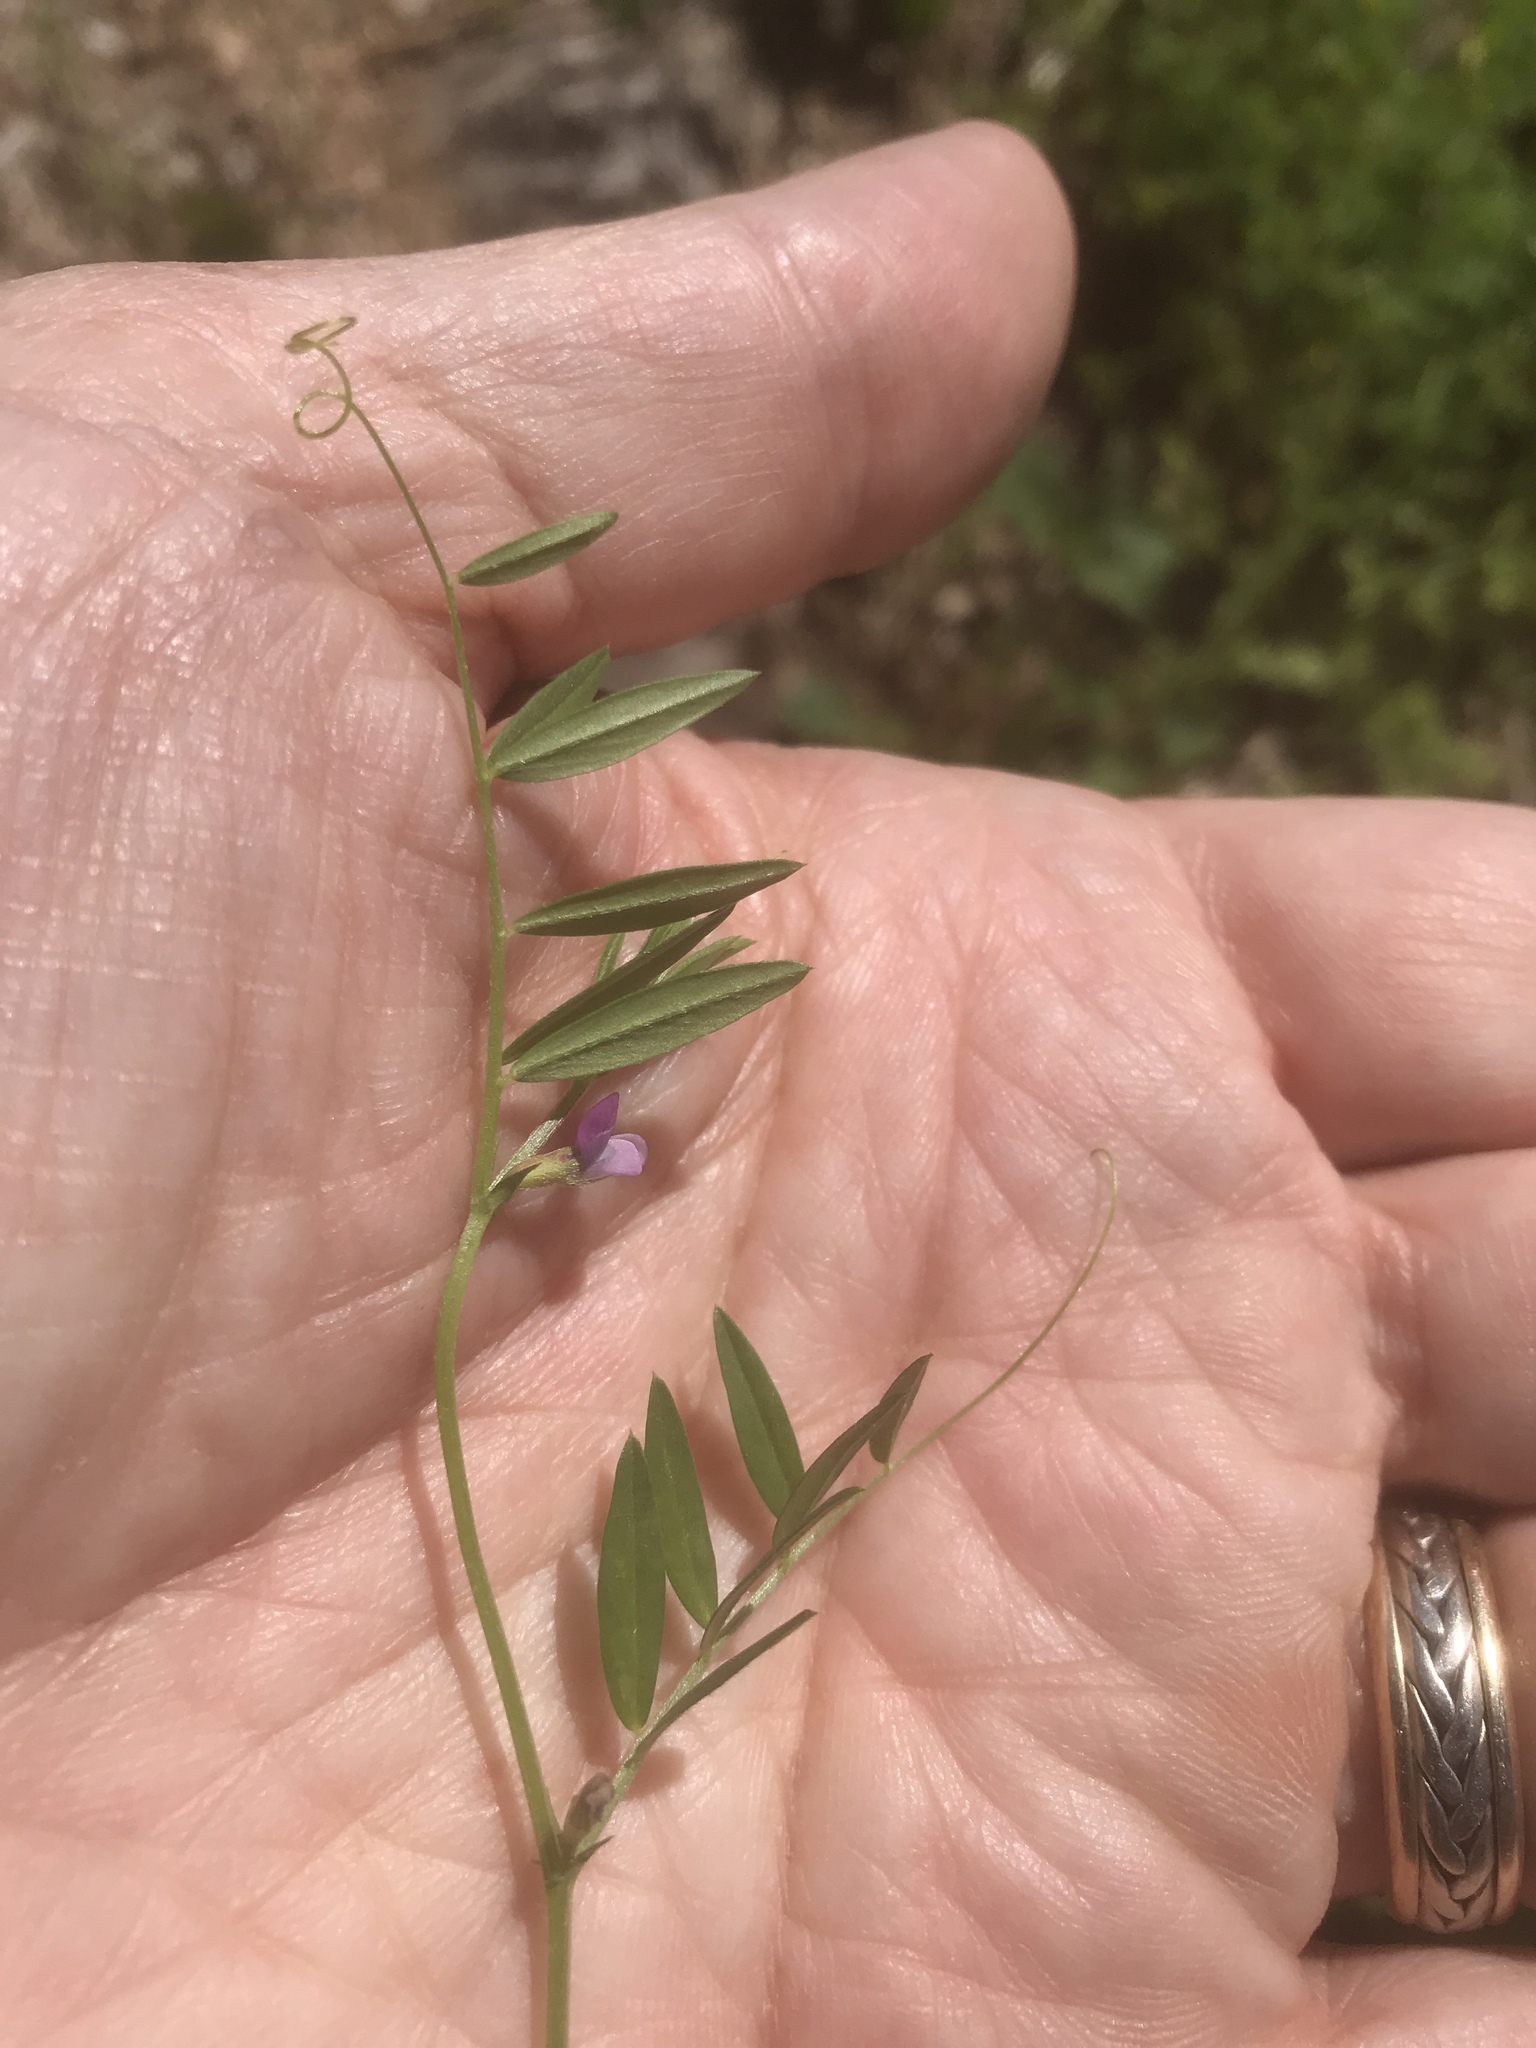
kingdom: Plantae
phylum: Tracheophyta
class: Magnoliopsida
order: Fabales
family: Fabaceae
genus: Vicia
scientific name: Vicia sativa
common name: Garden vetch
